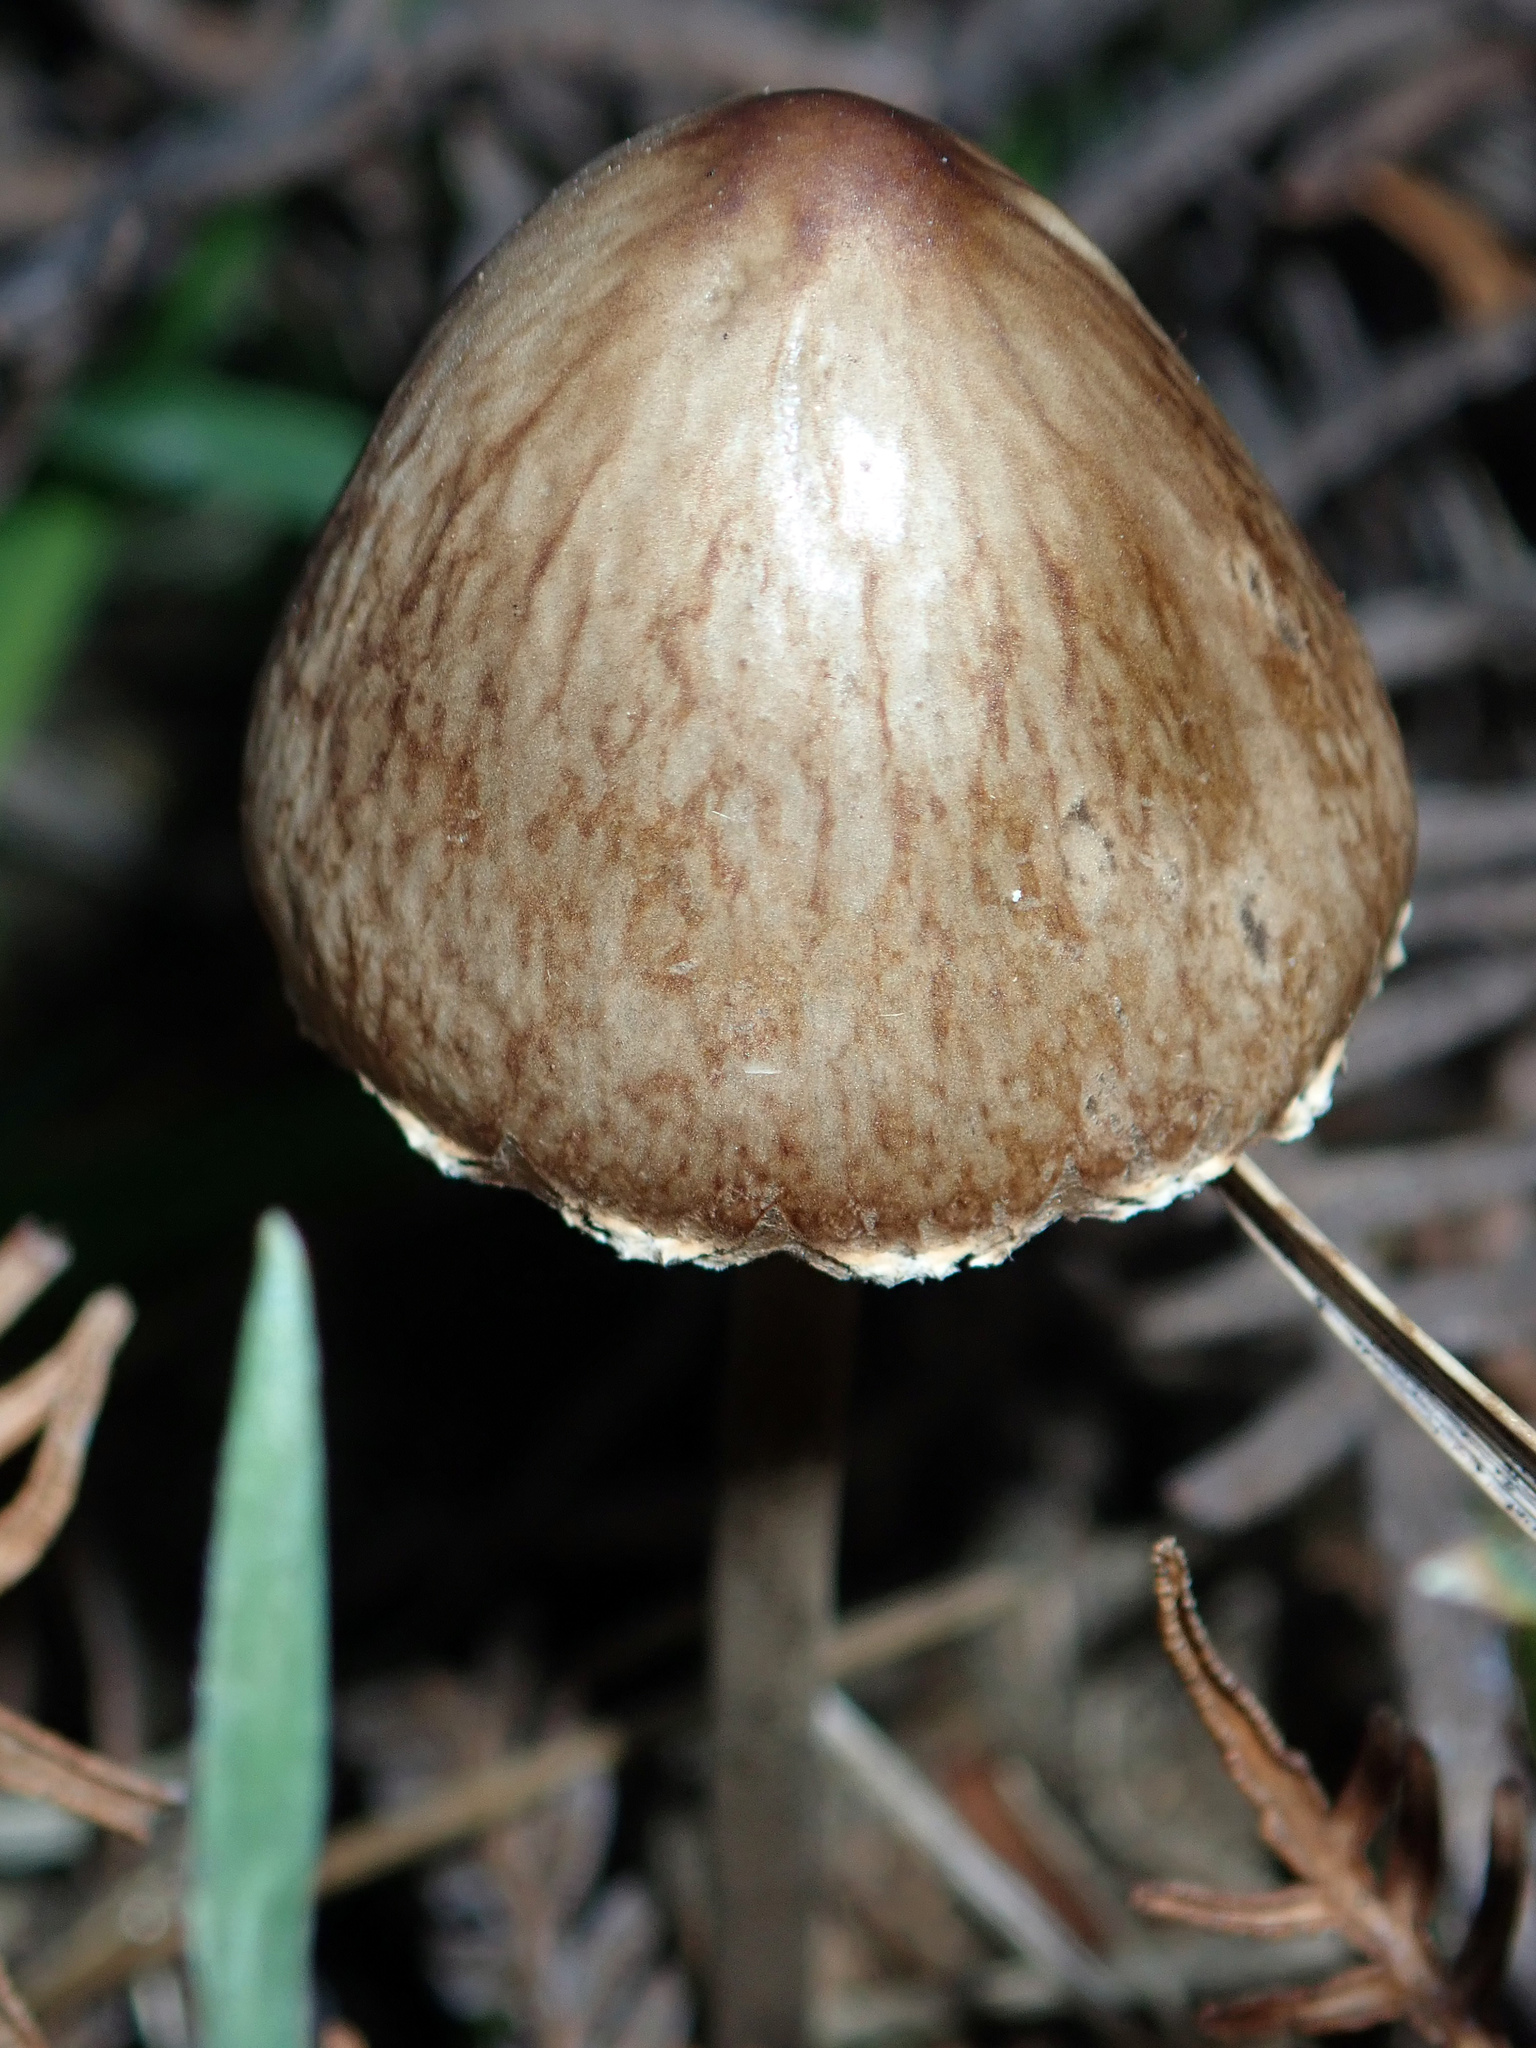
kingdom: Fungi
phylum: Basidiomycota
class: Agaricomycetes
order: Agaricales
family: Bolbitiaceae
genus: Panaeolus
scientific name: Panaeolus papilionaceus
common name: Petticoat mottlegill
